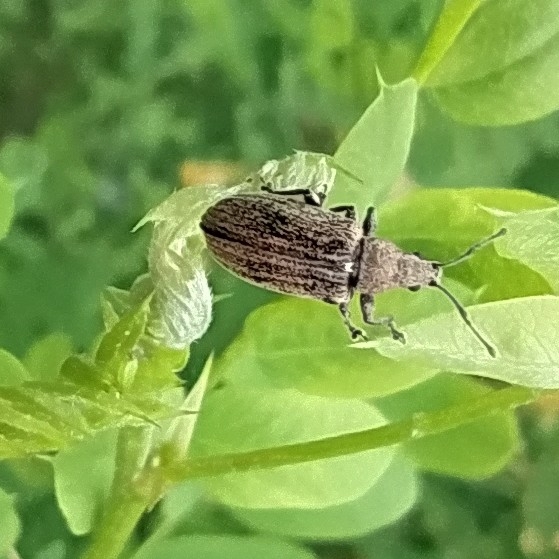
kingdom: Animalia
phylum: Arthropoda
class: Insecta
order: Coleoptera
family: Curculionidae
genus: Phyllobius
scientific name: Phyllobius pyri
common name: Common leaf weevil
